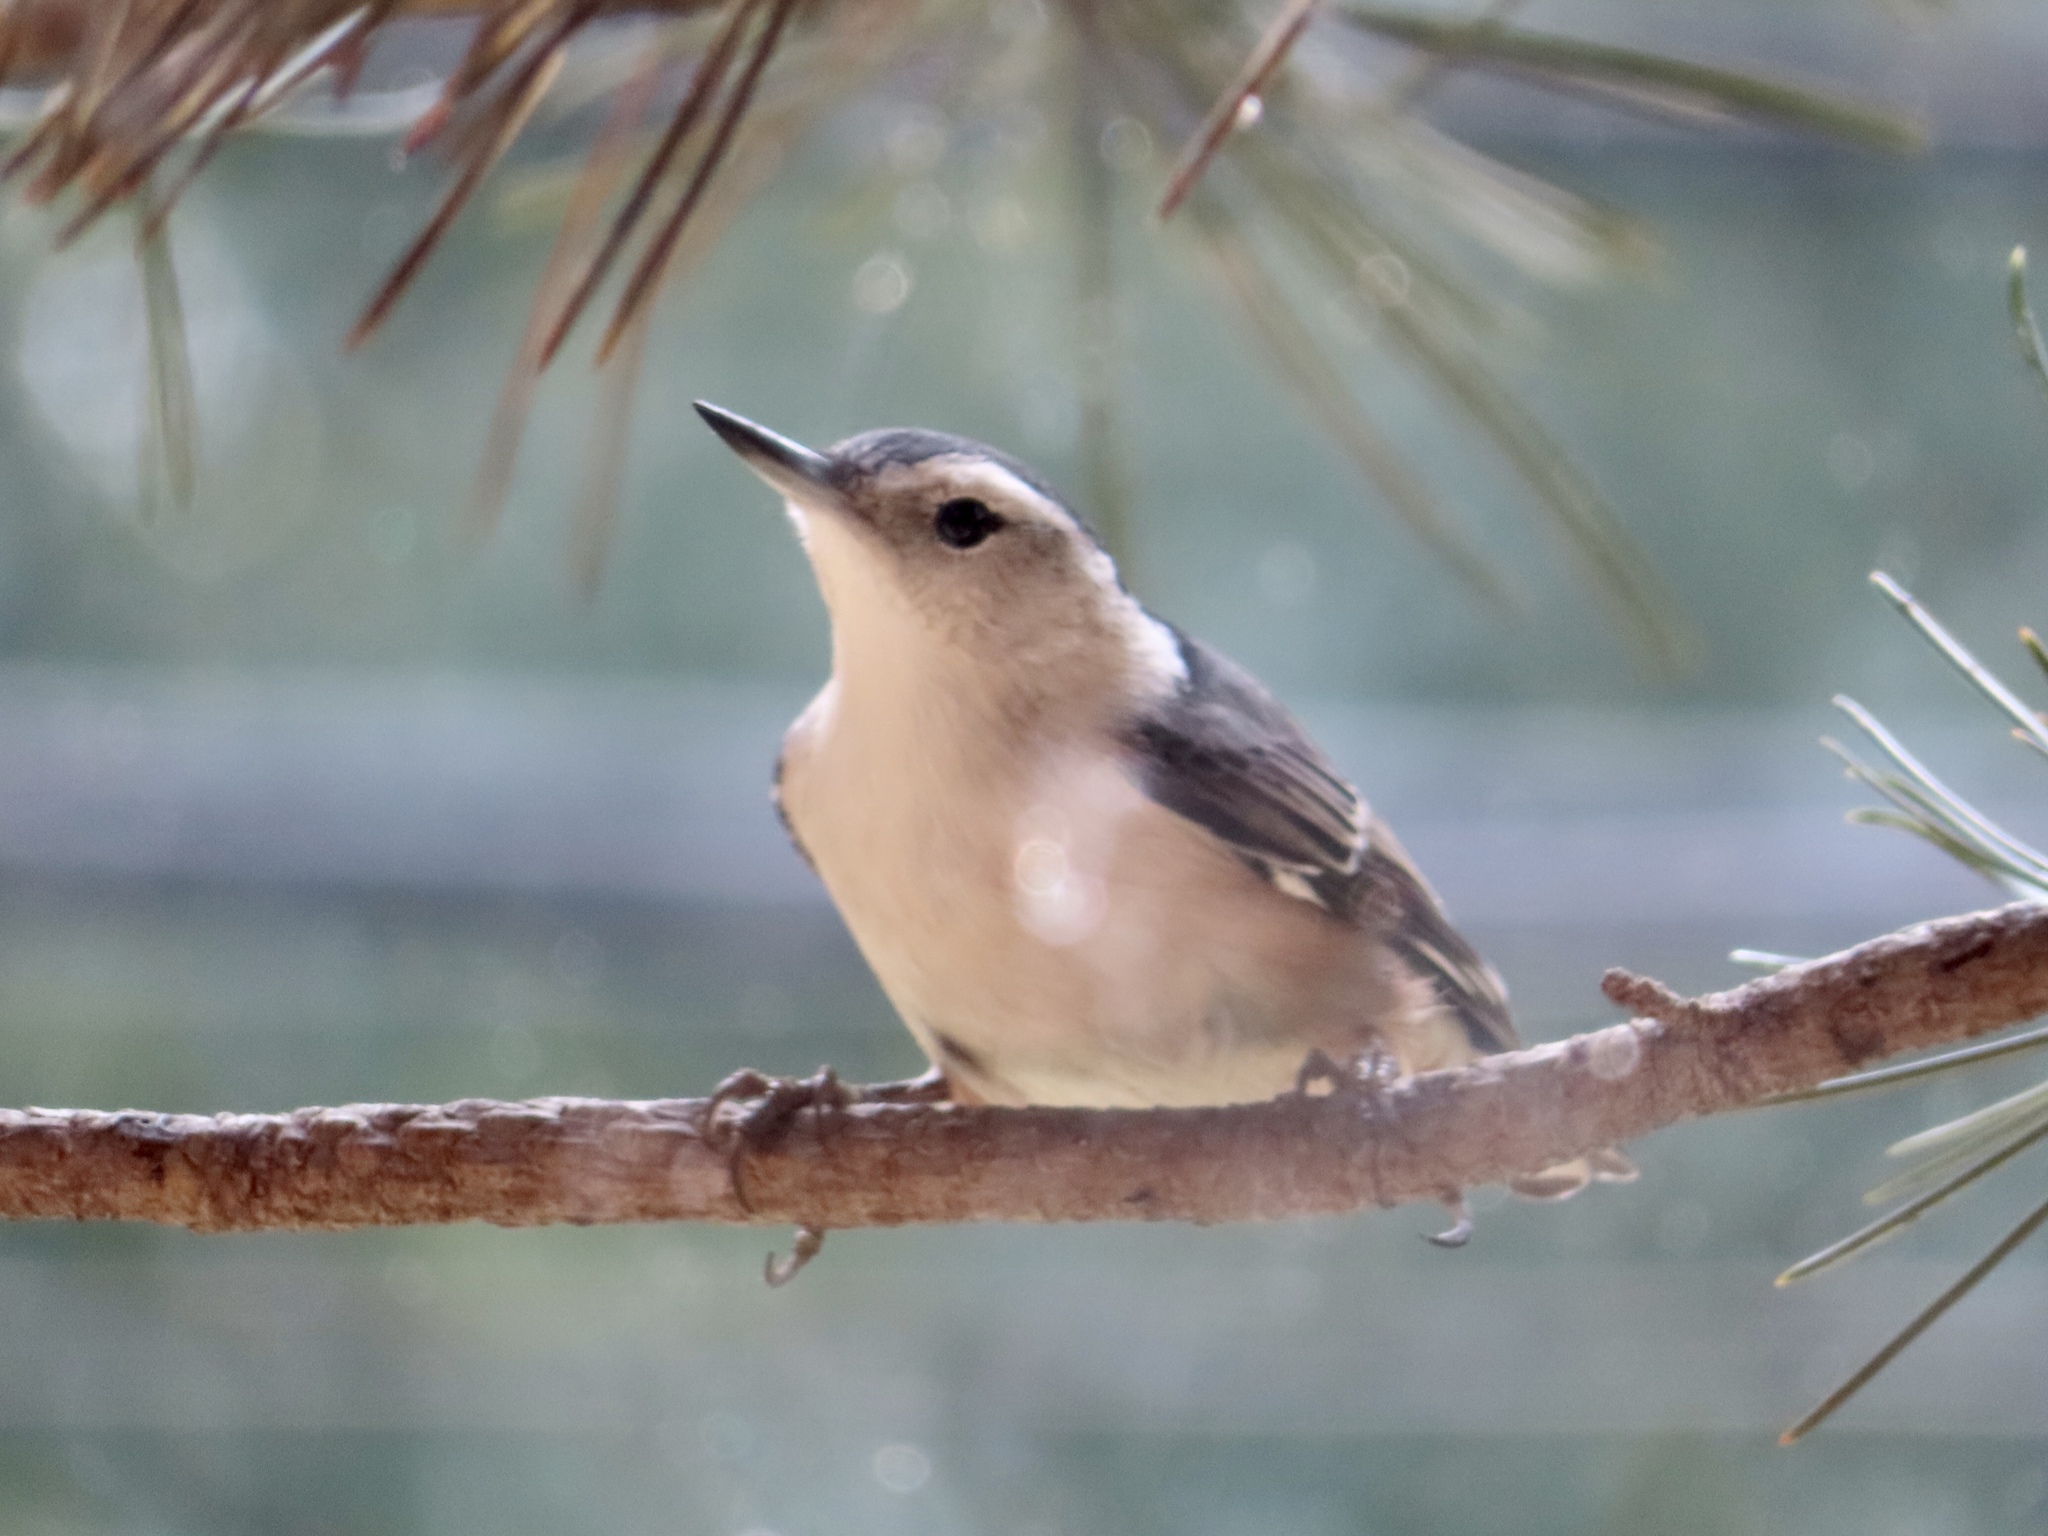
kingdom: Animalia
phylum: Chordata
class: Aves
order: Passeriformes
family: Sittidae
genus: Sitta
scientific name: Sitta carolinensis
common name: White-breasted nuthatch
